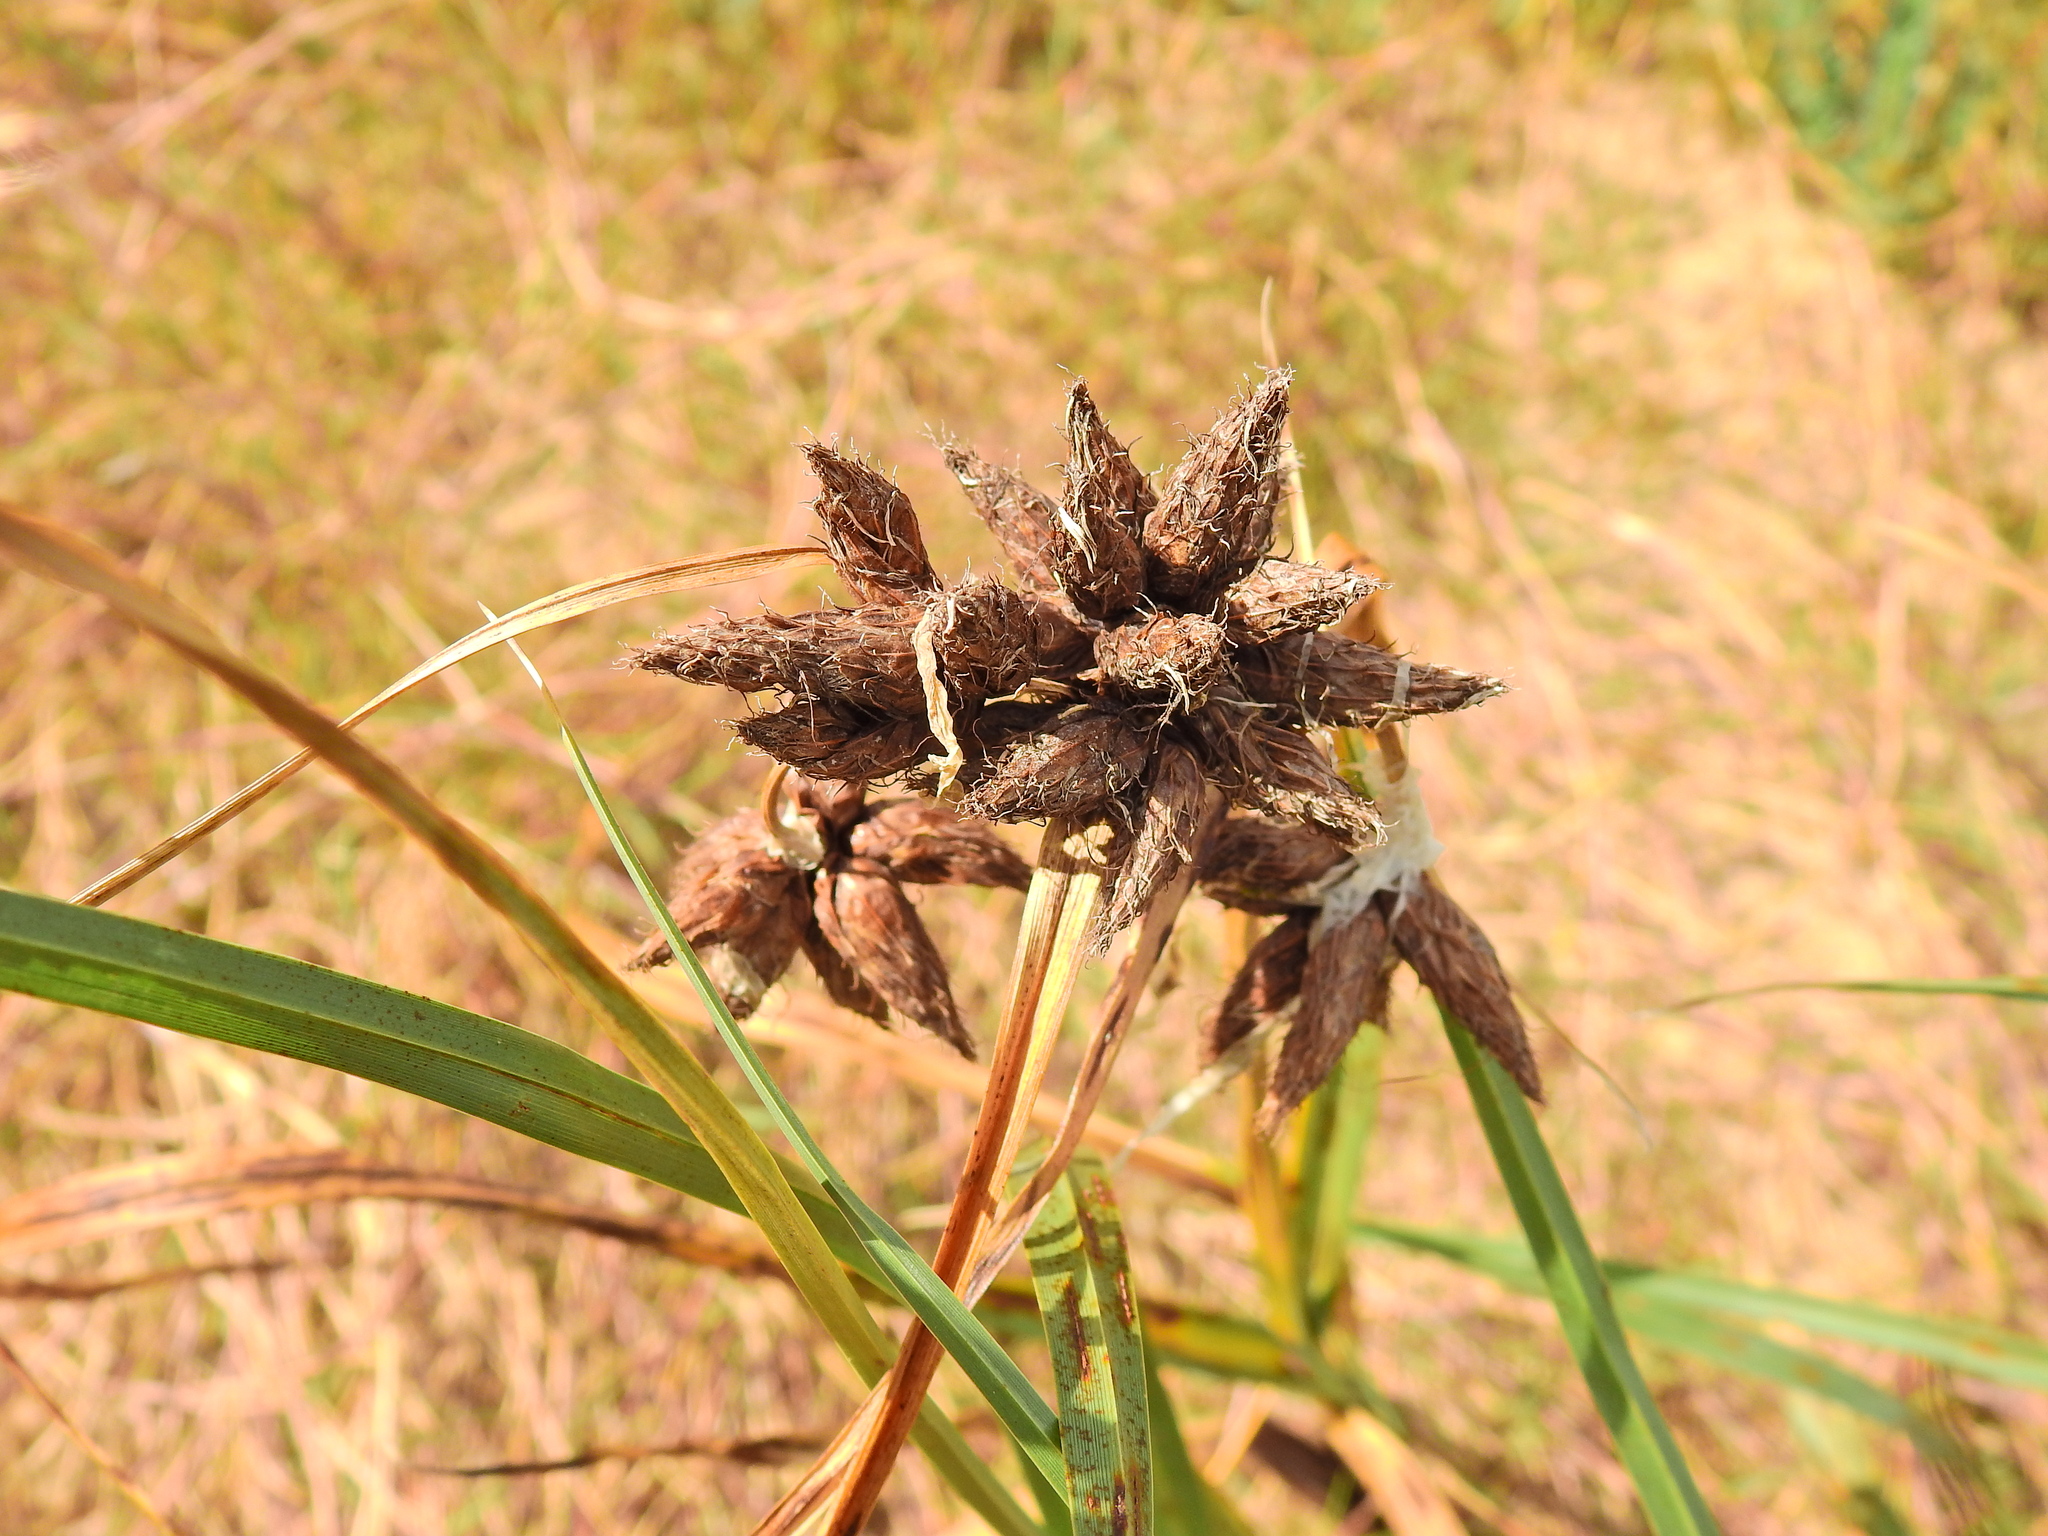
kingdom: Plantae
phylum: Tracheophyta
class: Liliopsida
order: Poales
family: Cyperaceae
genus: Bolboschoenus
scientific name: Bolboschoenus maritimus
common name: Sea club-rush
